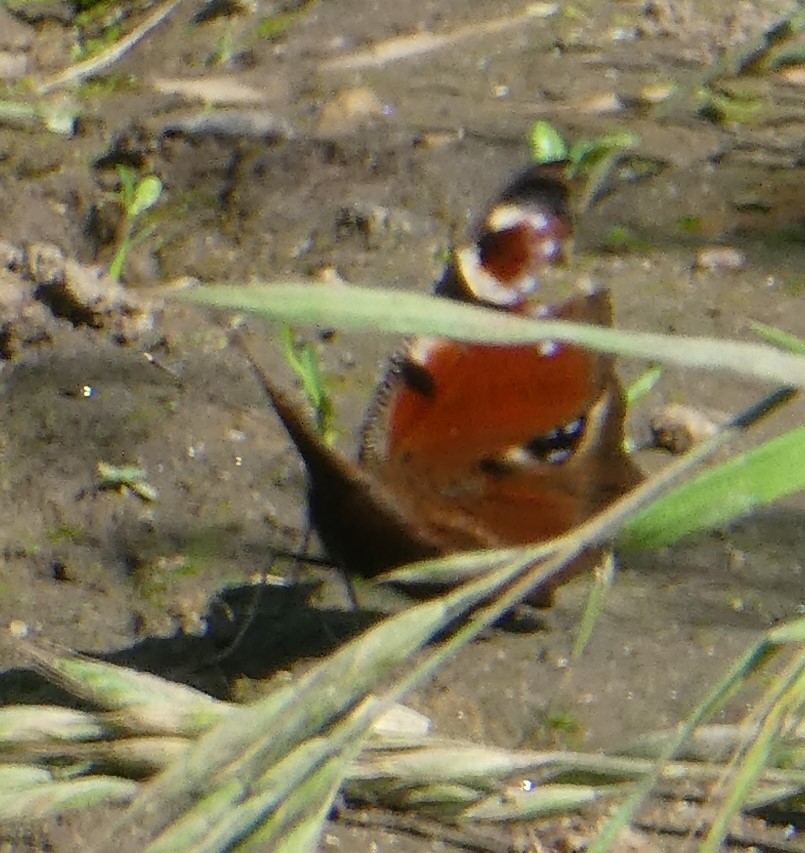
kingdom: Animalia
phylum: Arthropoda
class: Insecta
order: Lepidoptera
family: Nymphalidae
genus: Aglais
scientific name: Aglais io
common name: Peacock
